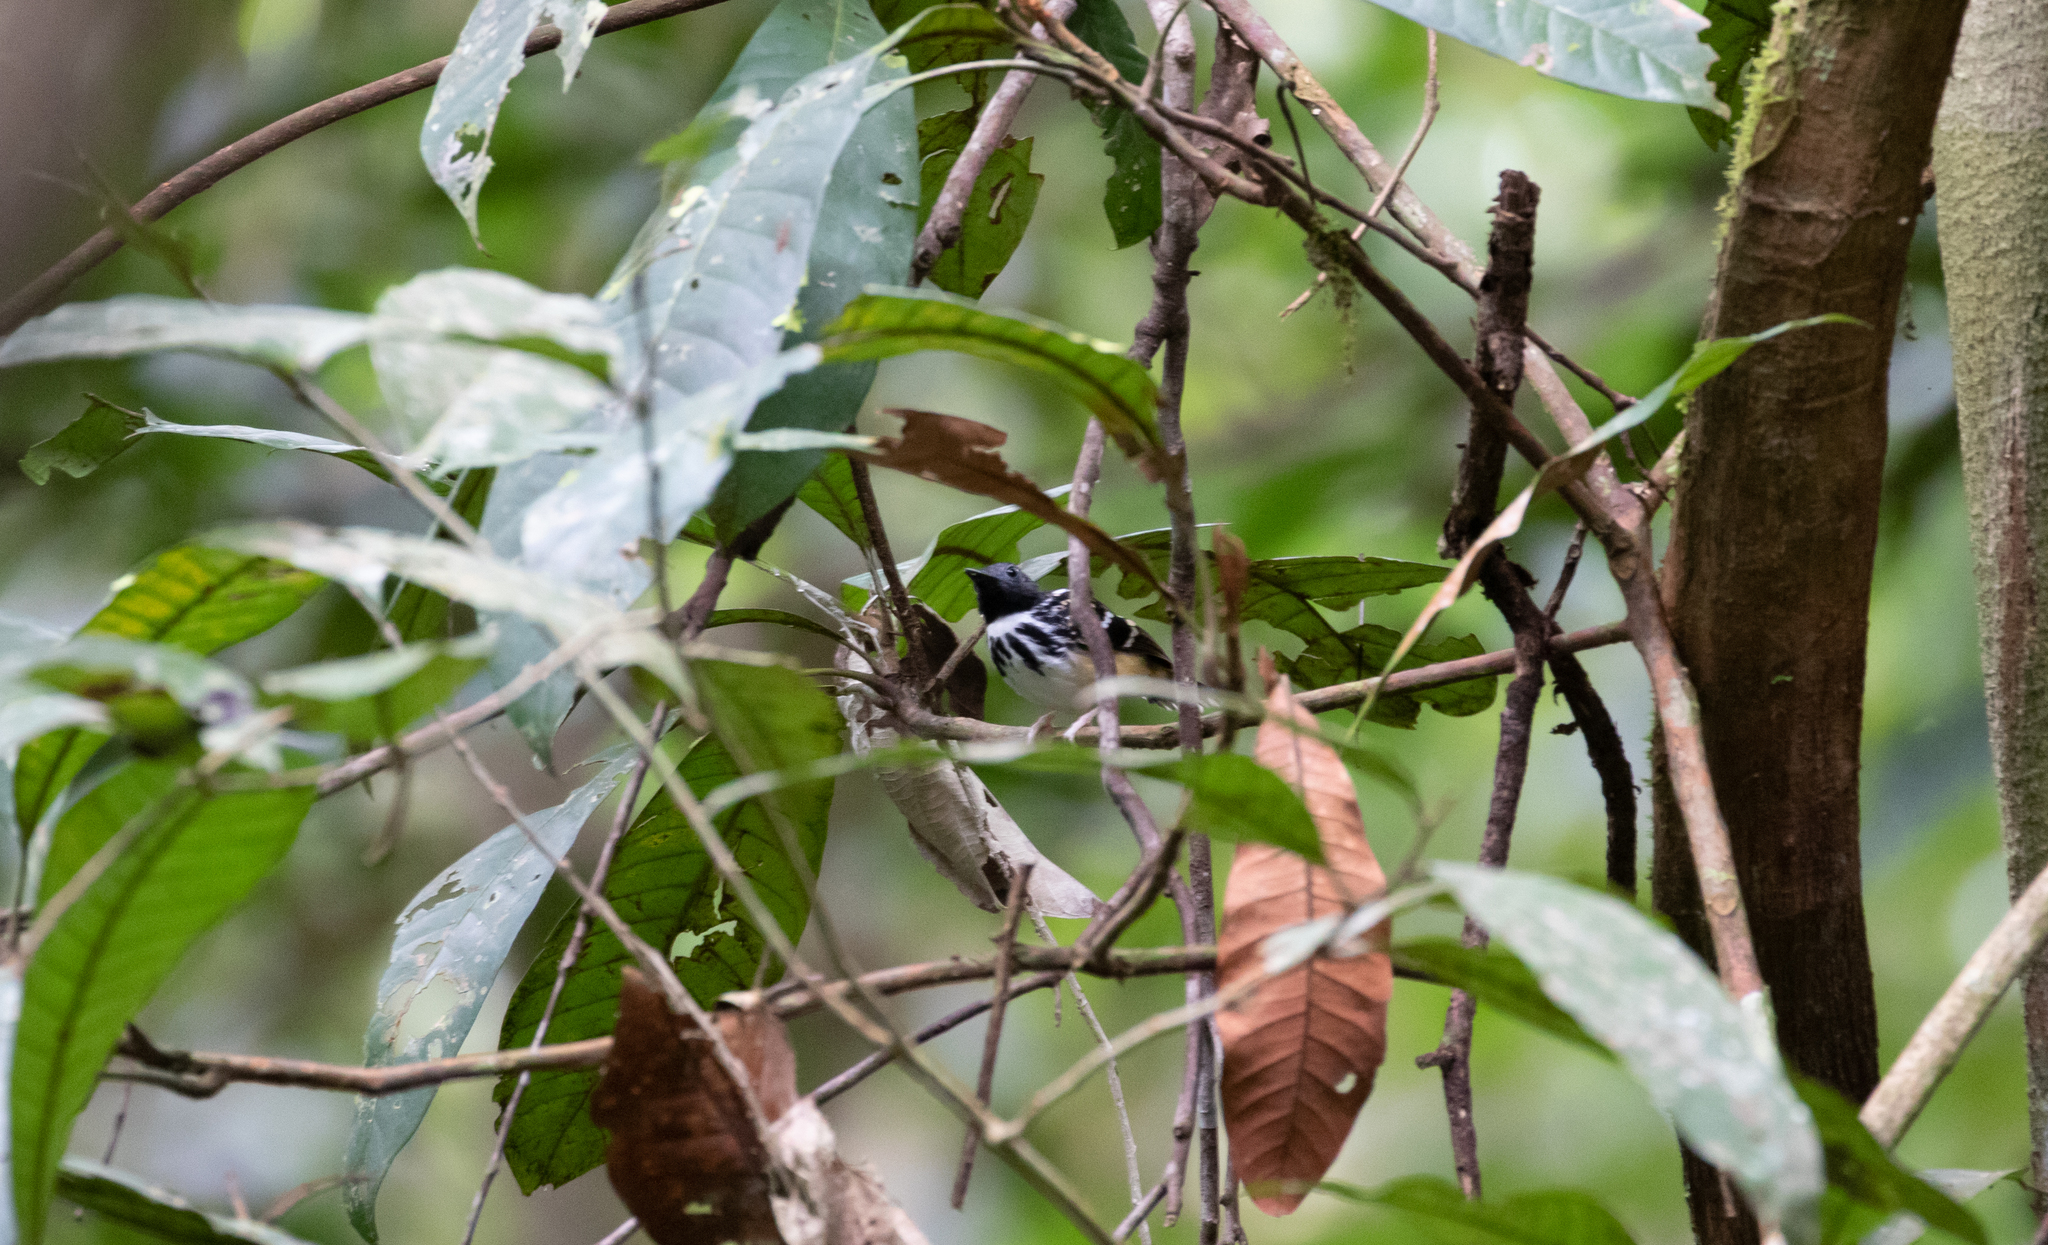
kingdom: Animalia
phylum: Chordata
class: Aves
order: Passeriformes
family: Thamnophilidae
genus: Hylophylax
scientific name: Hylophylax naevius
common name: Spot-backed antbird
